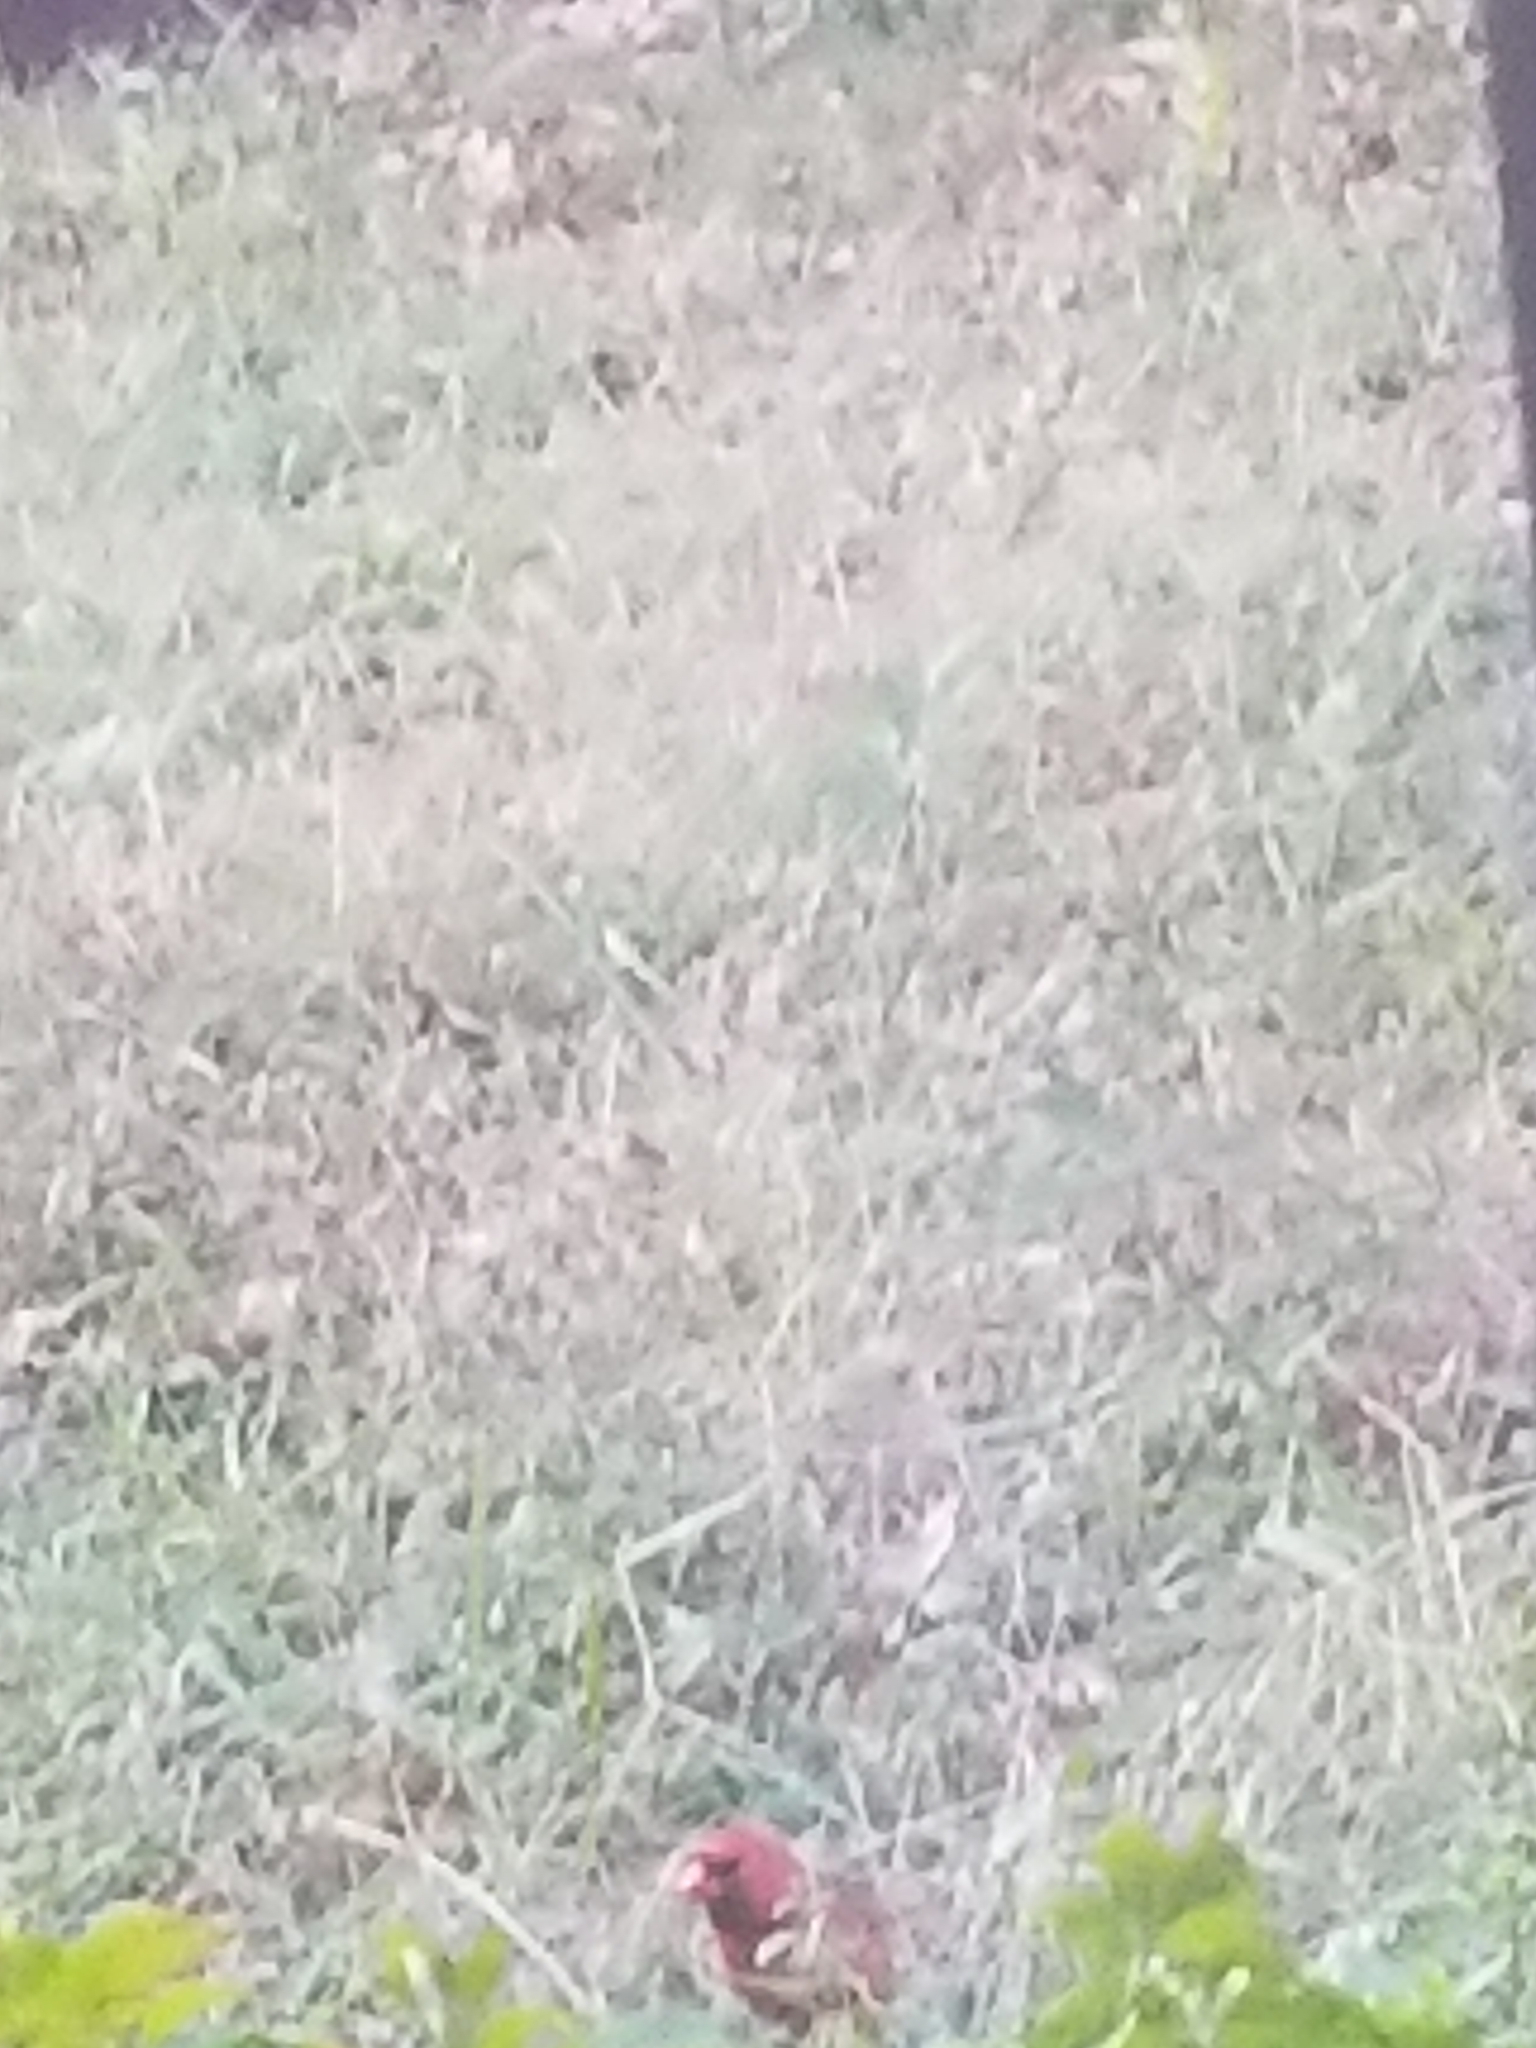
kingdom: Animalia
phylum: Chordata
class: Aves
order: Passeriformes
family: Cardinalidae
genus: Cardinalis
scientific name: Cardinalis cardinalis
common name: Northern cardinal
